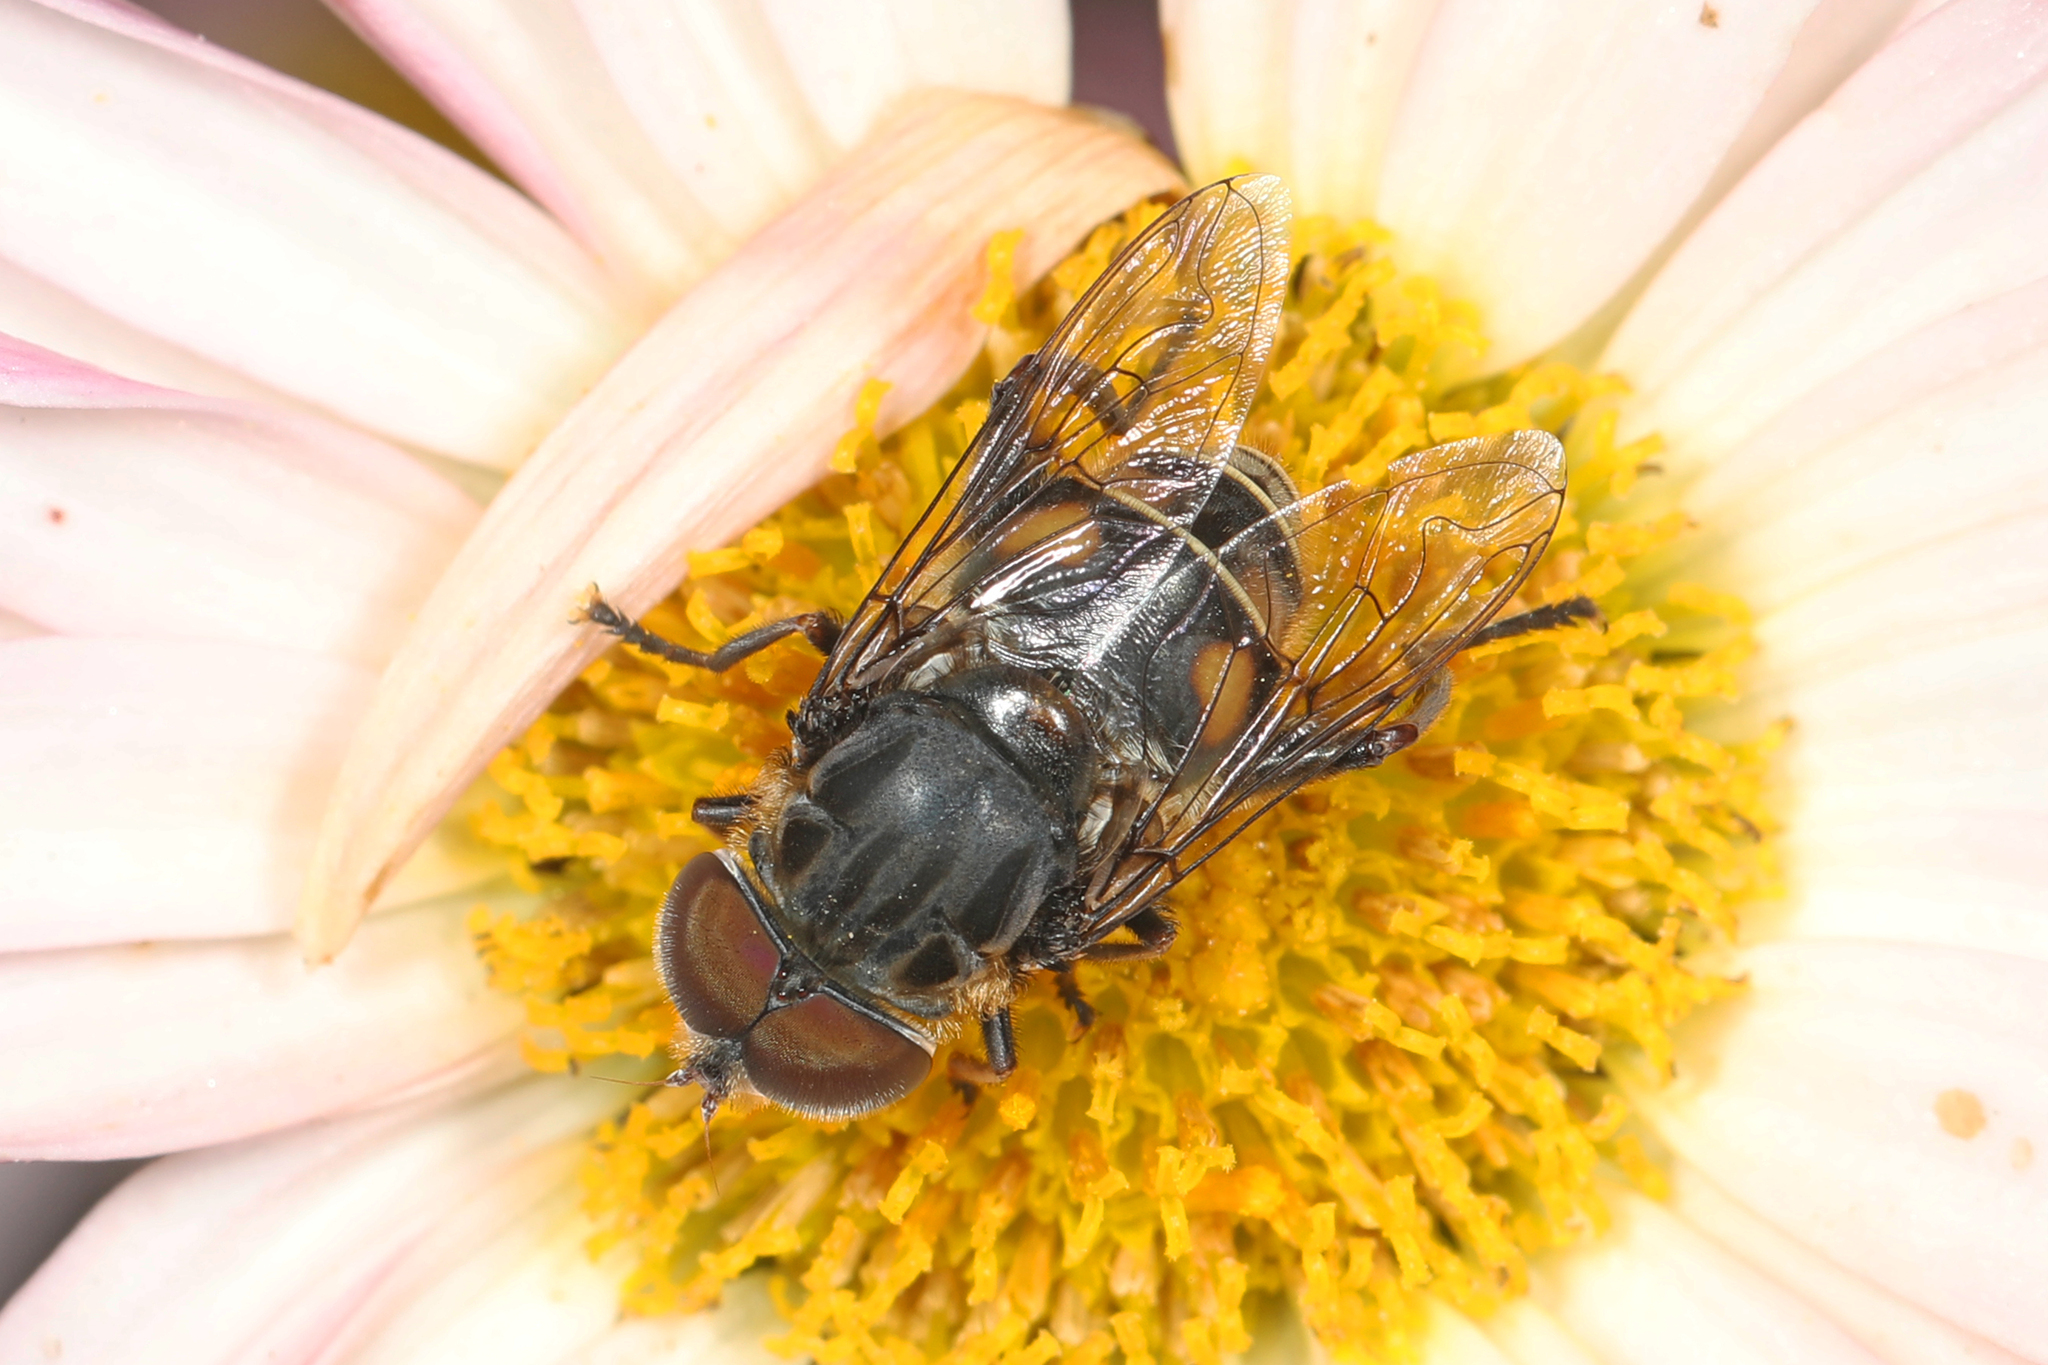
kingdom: Animalia
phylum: Arthropoda
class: Insecta
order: Diptera
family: Syrphidae
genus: Palpada
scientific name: Palpada furcata
